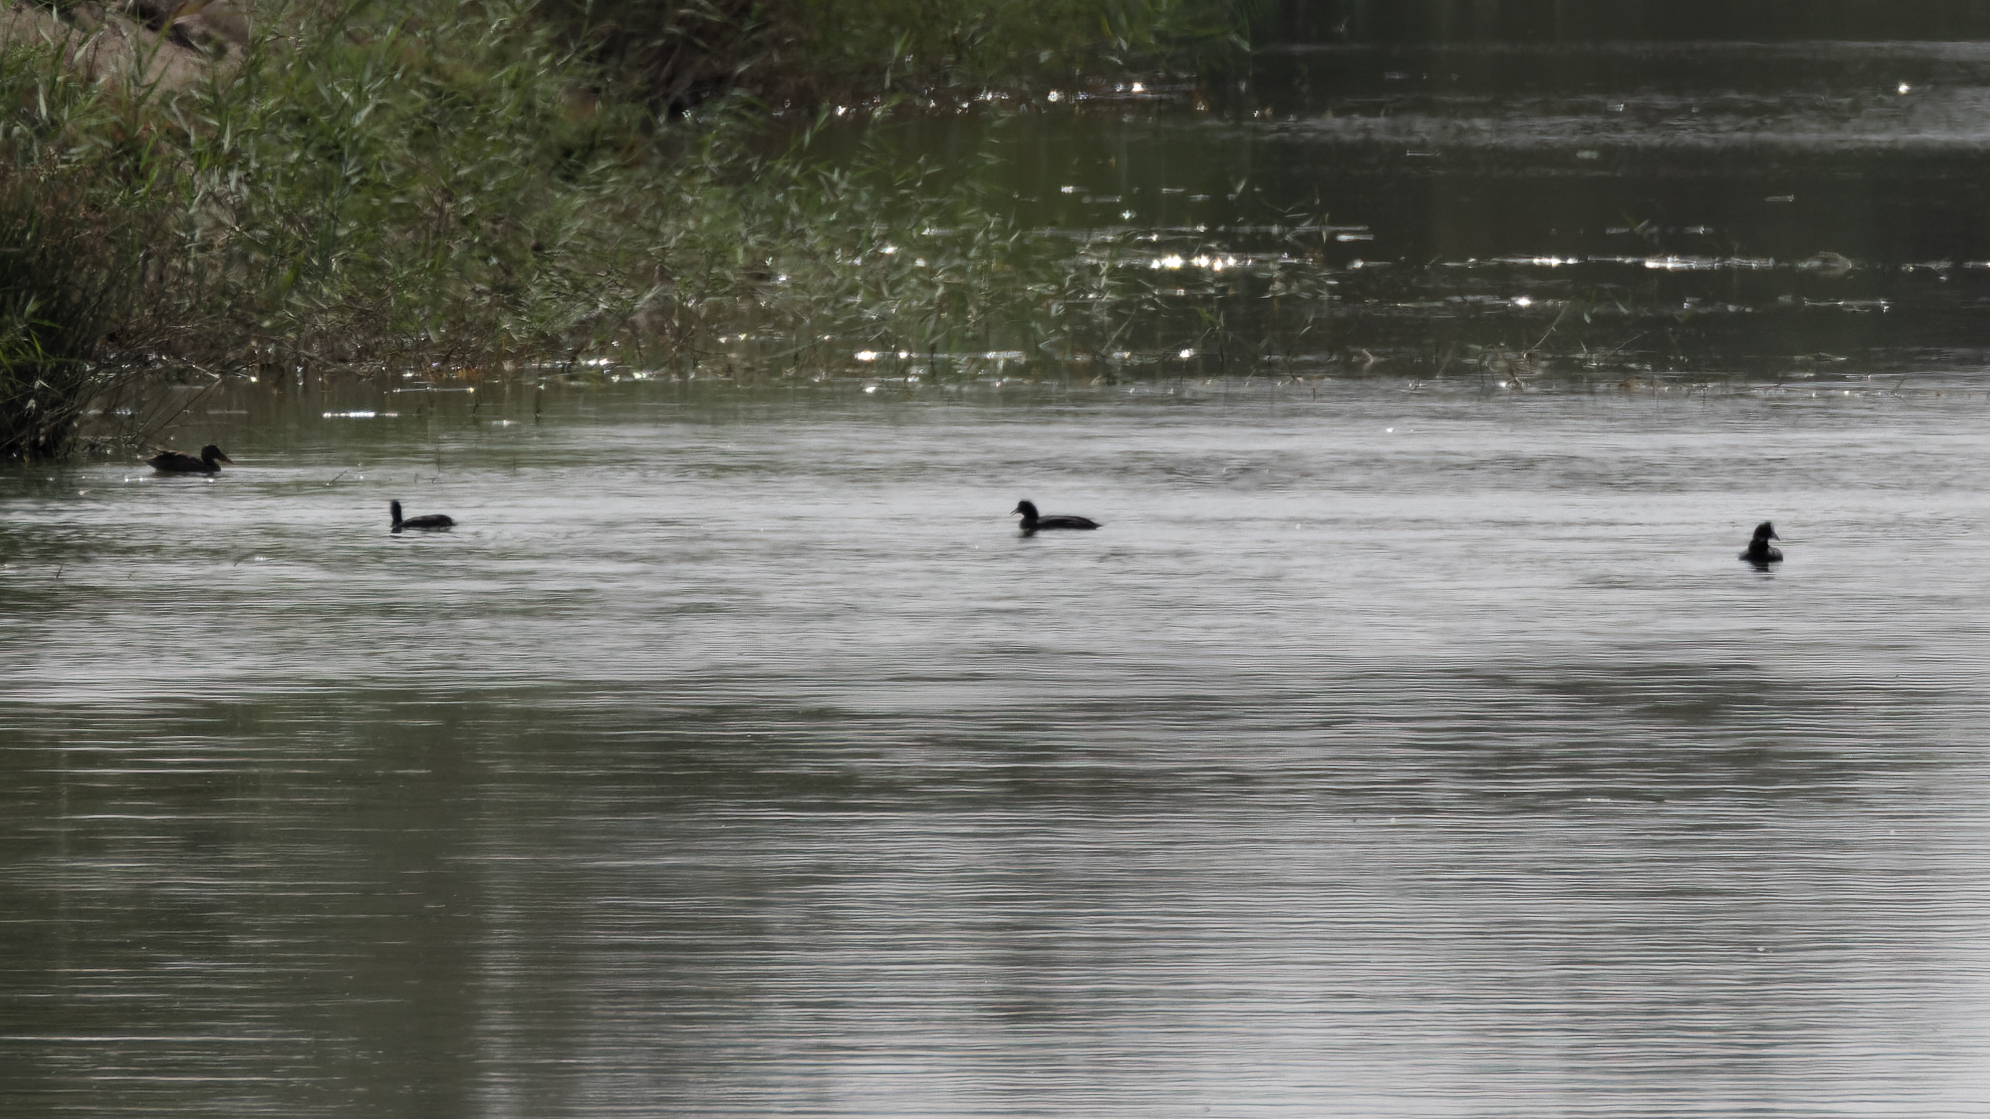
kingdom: Animalia
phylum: Chordata
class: Aves
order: Gruiformes
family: Rallidae
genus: Fulica
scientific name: Fulica cristata
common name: Red-knobbed coot
